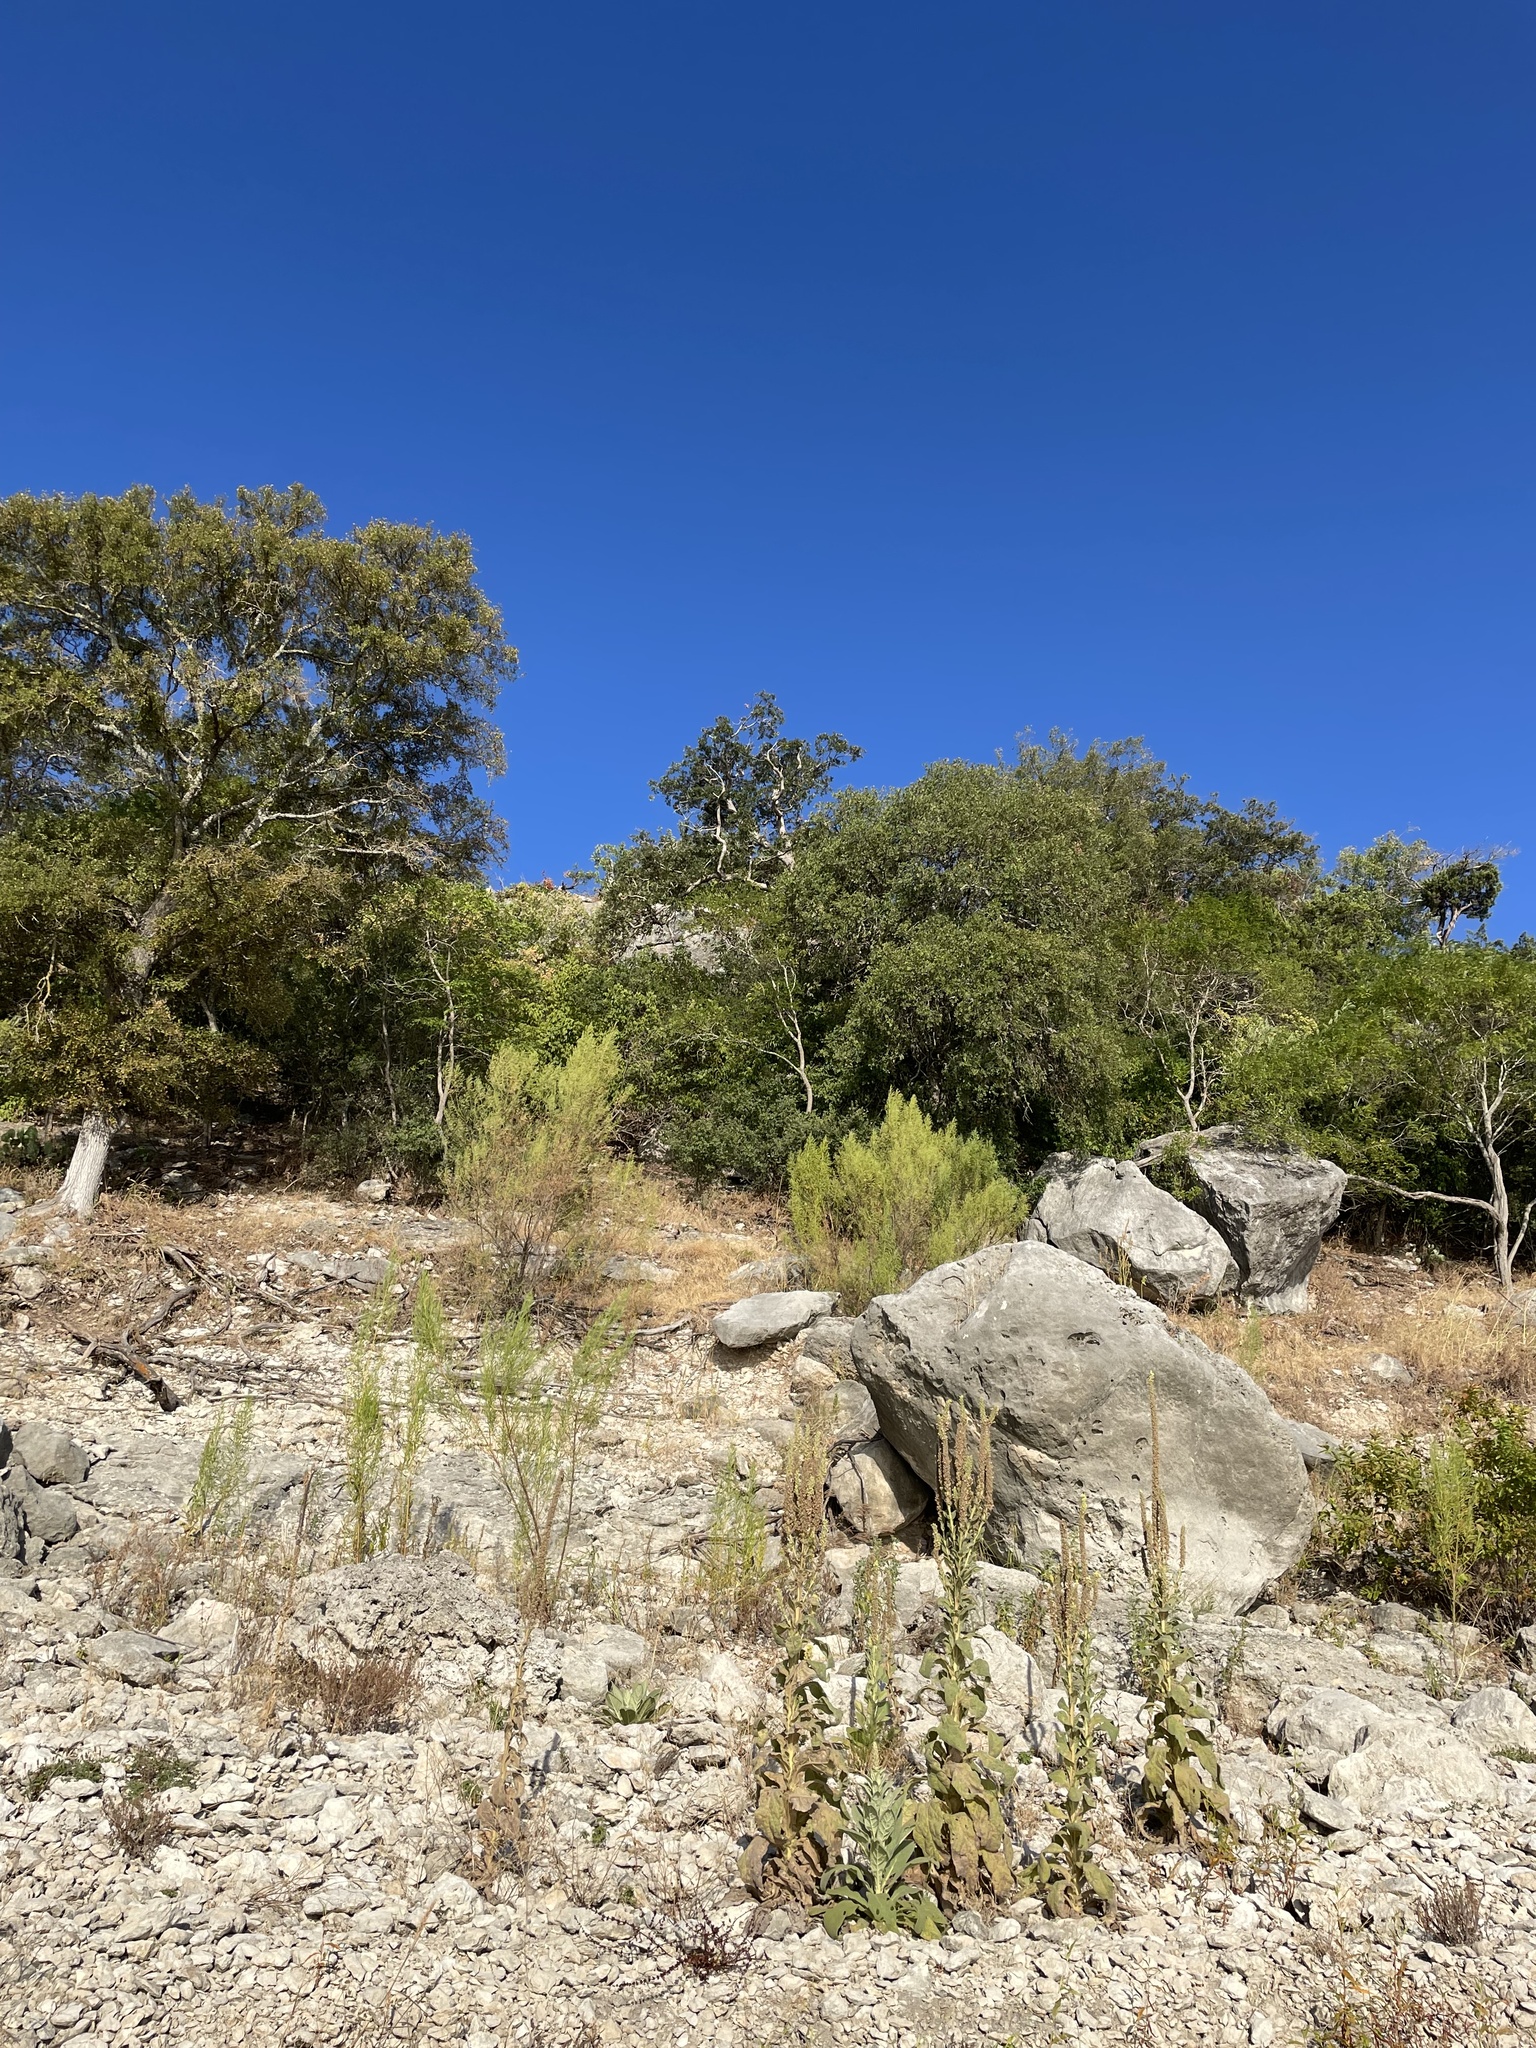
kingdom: Plantae
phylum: Tracheophyta
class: Magnoliopsida
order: Fagales
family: Fagaceae
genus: Quercus
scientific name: Quercus sinuata
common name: Durand oak
